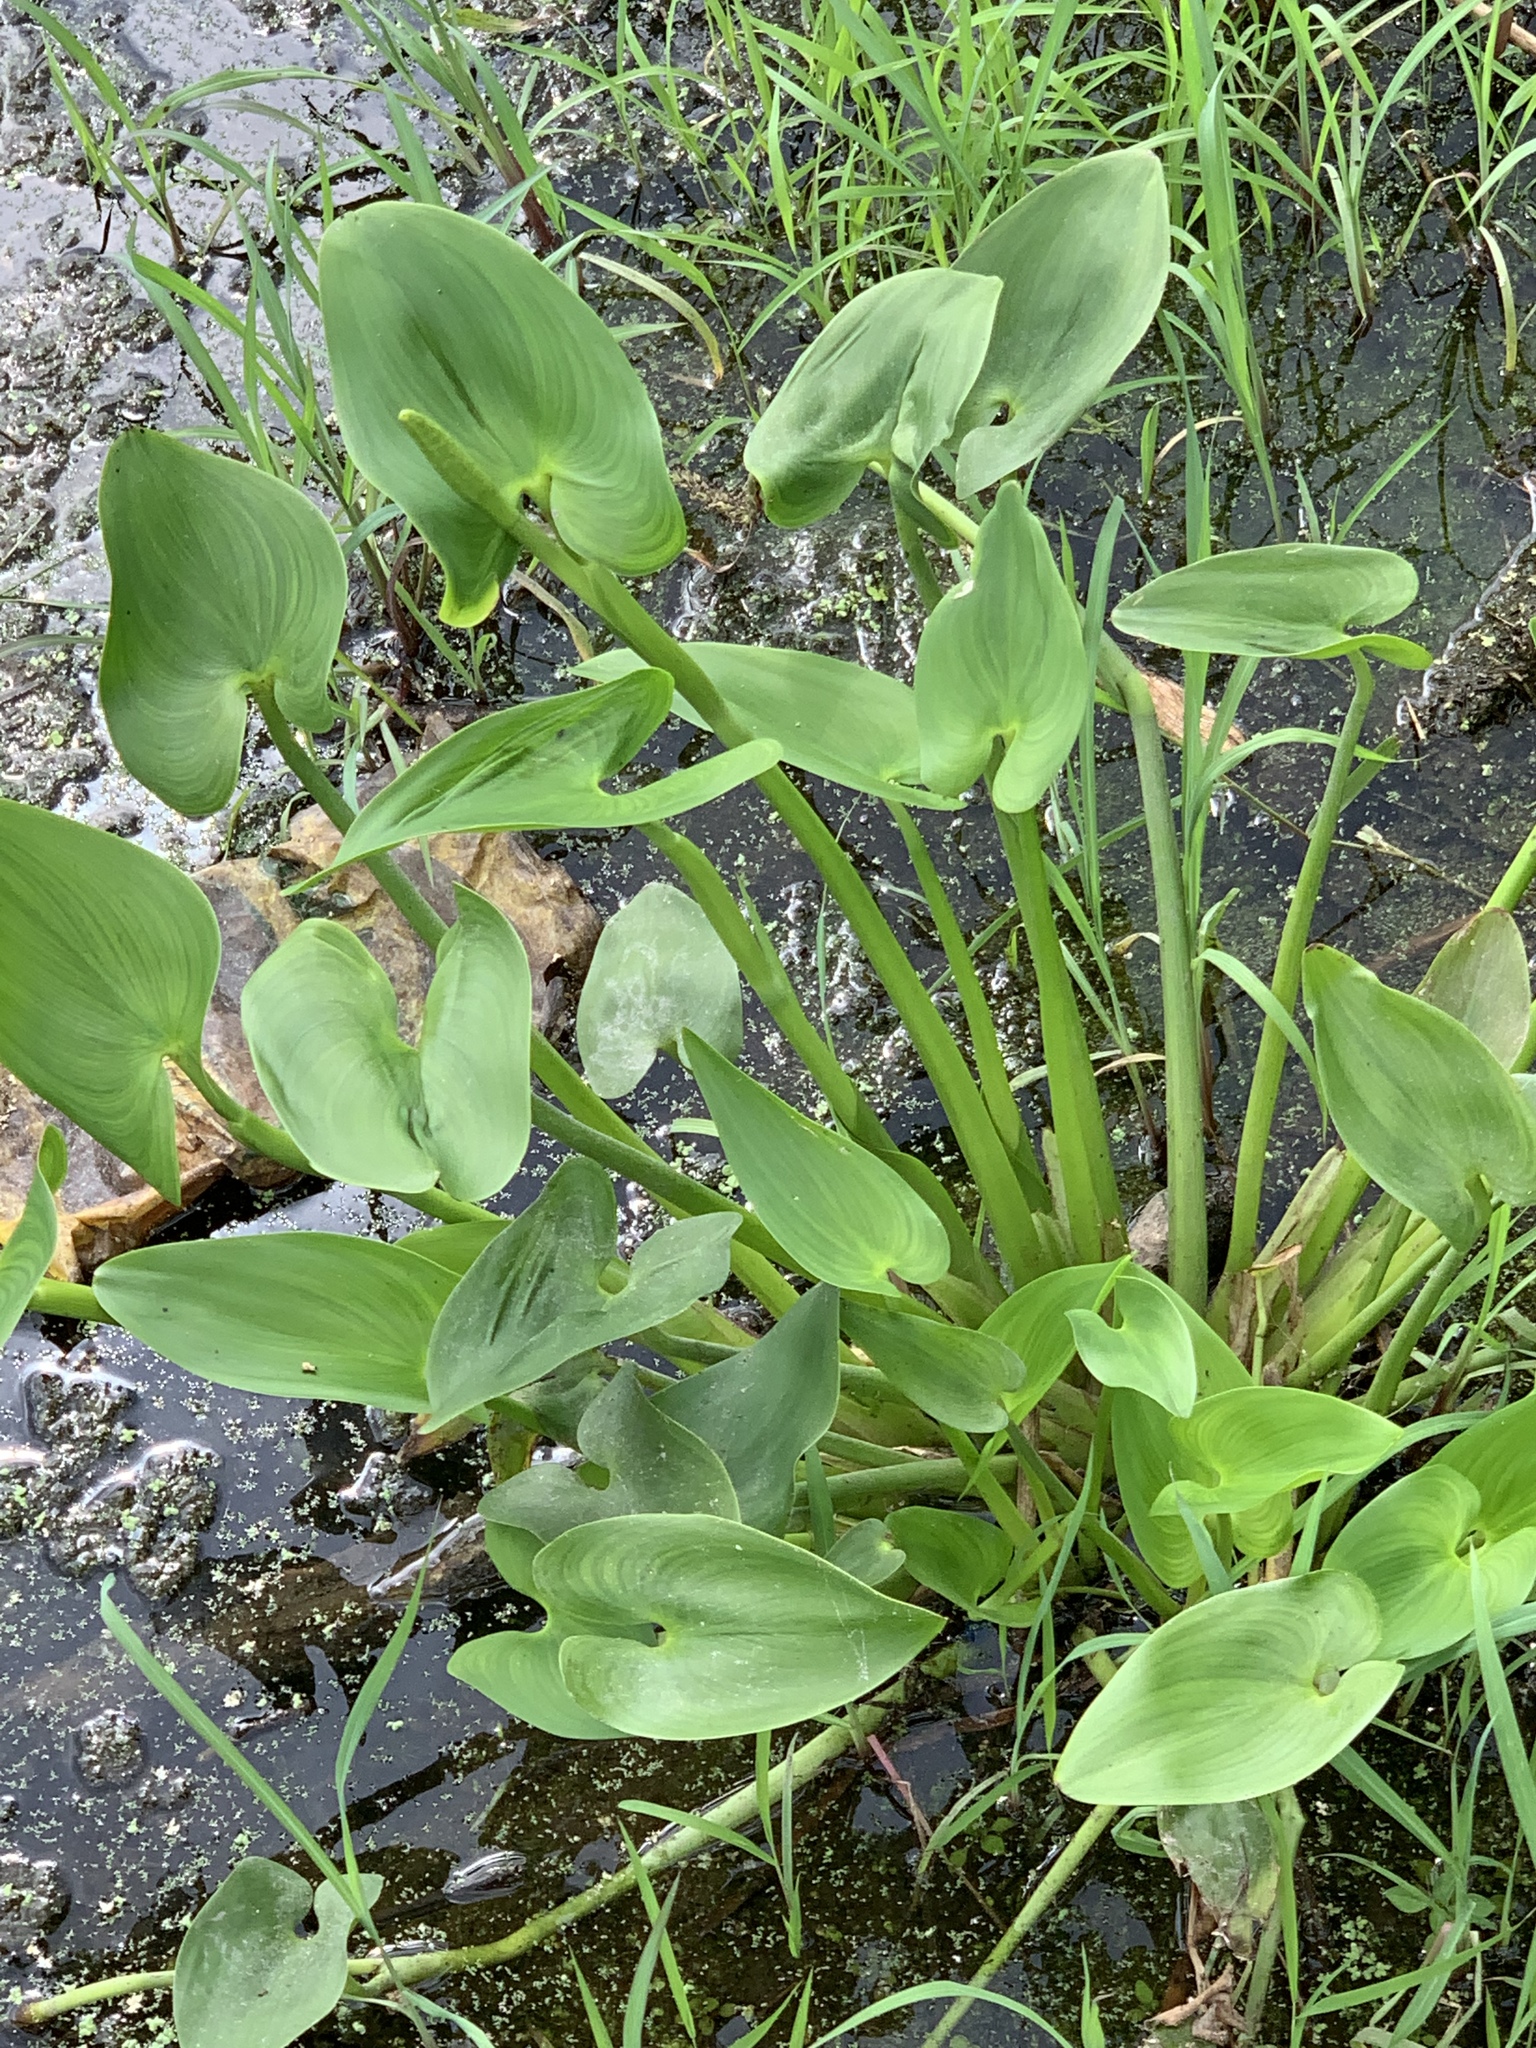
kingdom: Plantae
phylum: Tracheophyta
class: Liliopsida
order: Commelinales
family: Pontederiaceae
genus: Pontederia
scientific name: Pontederia cordata
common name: Pickerelweed
